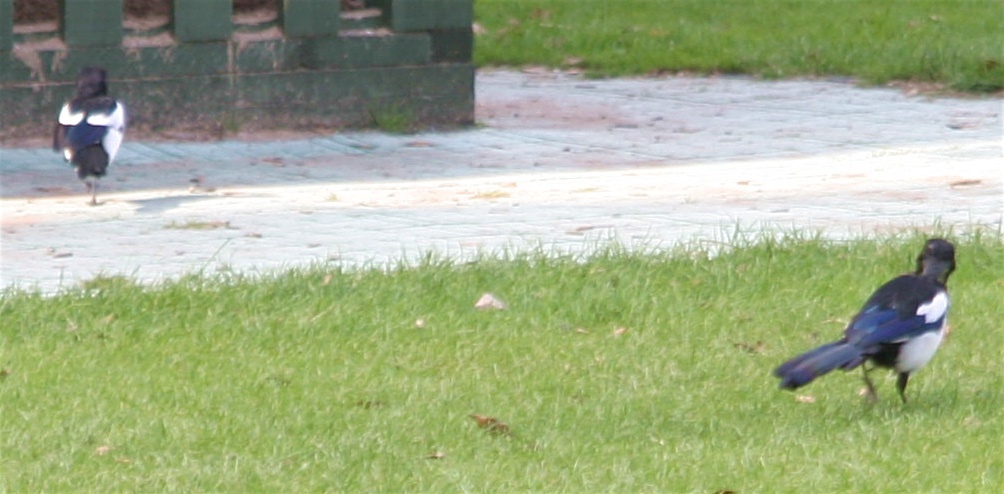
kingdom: Animalia
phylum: Chordata
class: Aves
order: Passeriformes
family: Corvidae
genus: Pica
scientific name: Pica pica
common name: Eurasian magpie
